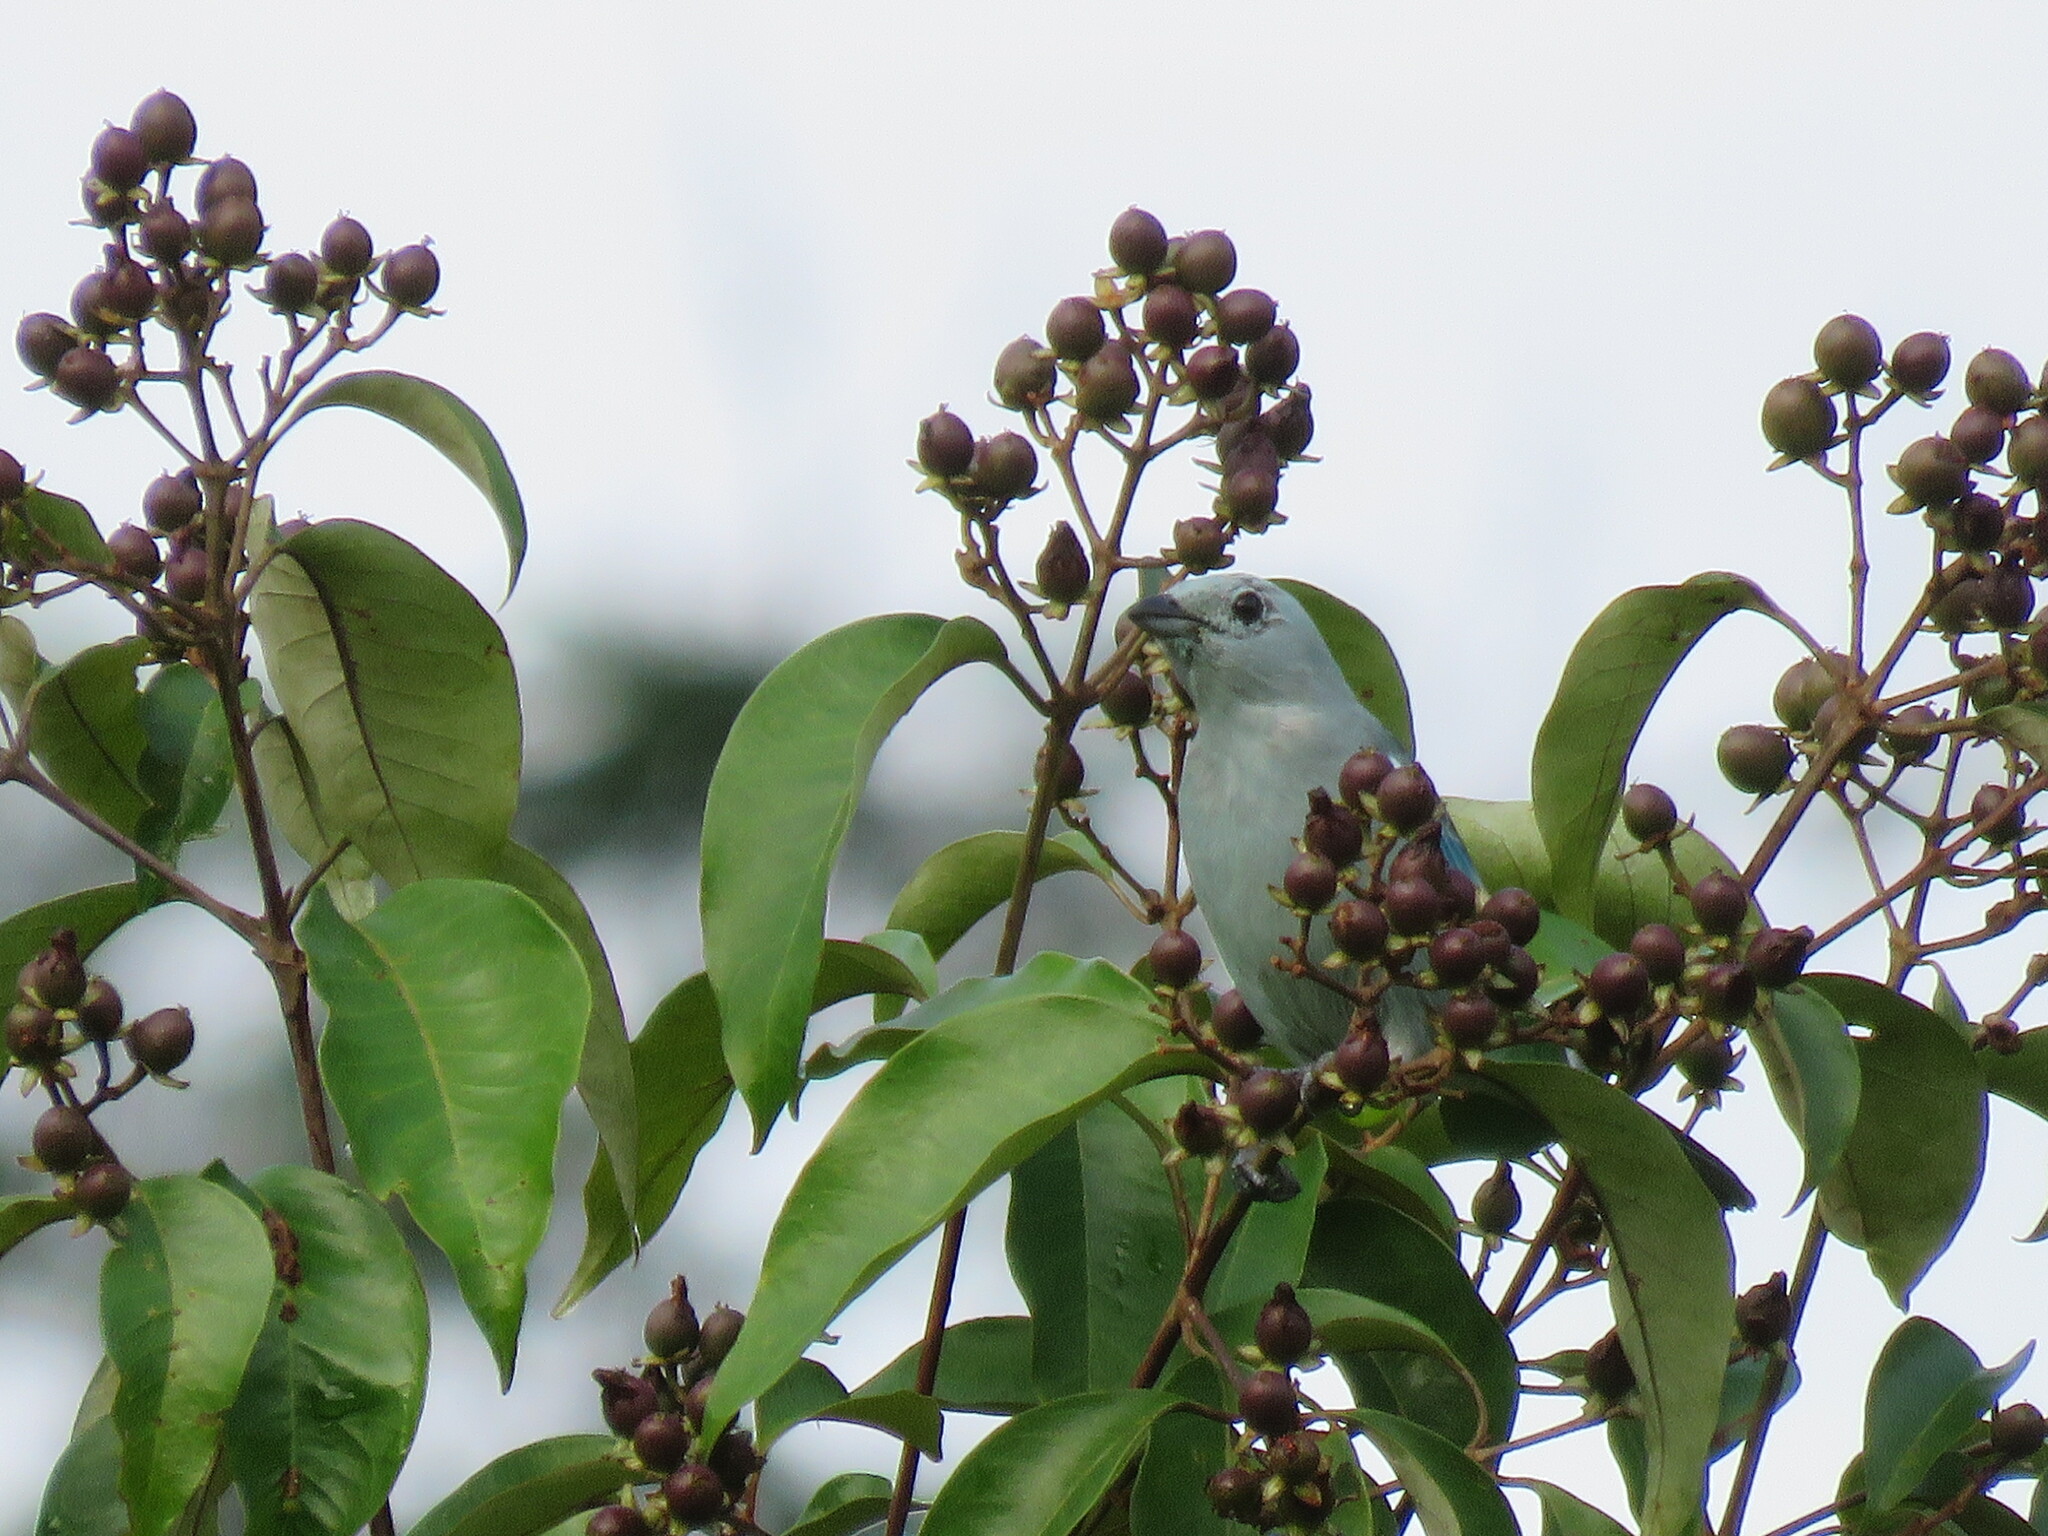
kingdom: Animalia
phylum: Chordata
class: Aves
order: Passeriformes
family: Thraupidae
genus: Thraupis
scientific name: Thraupis episcopus
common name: Blue-grey tanager
